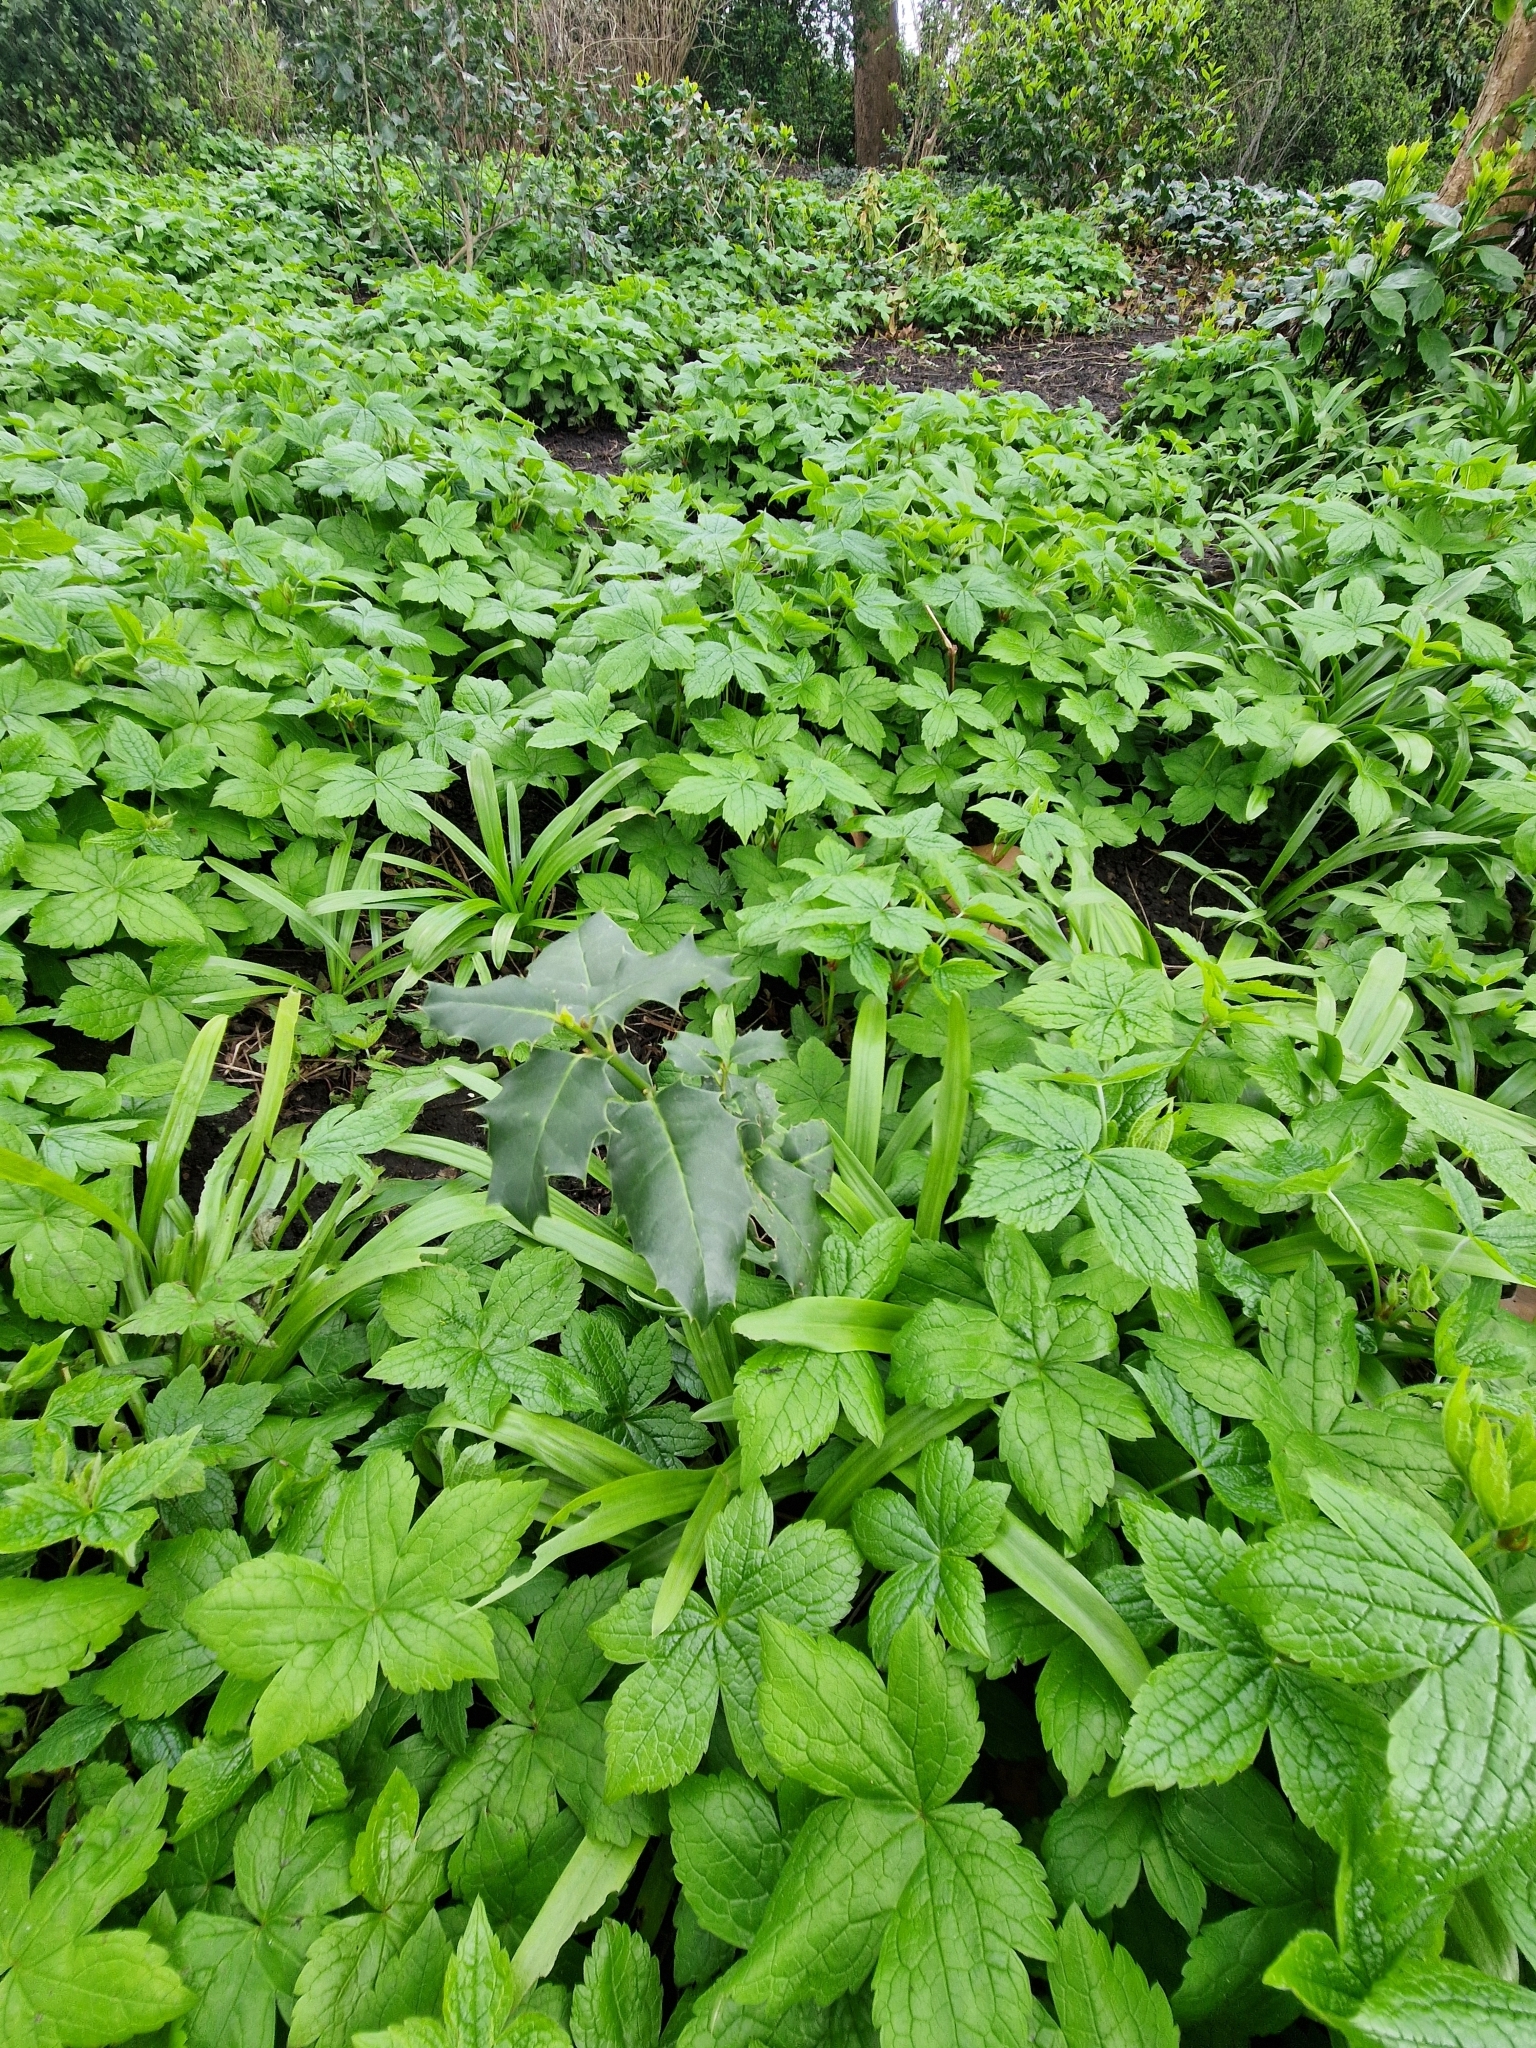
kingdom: Plantae
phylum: Tracheophyta
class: Magnoliopsida
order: Aquifoliales
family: Aquifoliaceae
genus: Ilex
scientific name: Ilex aquifolium
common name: English holly
